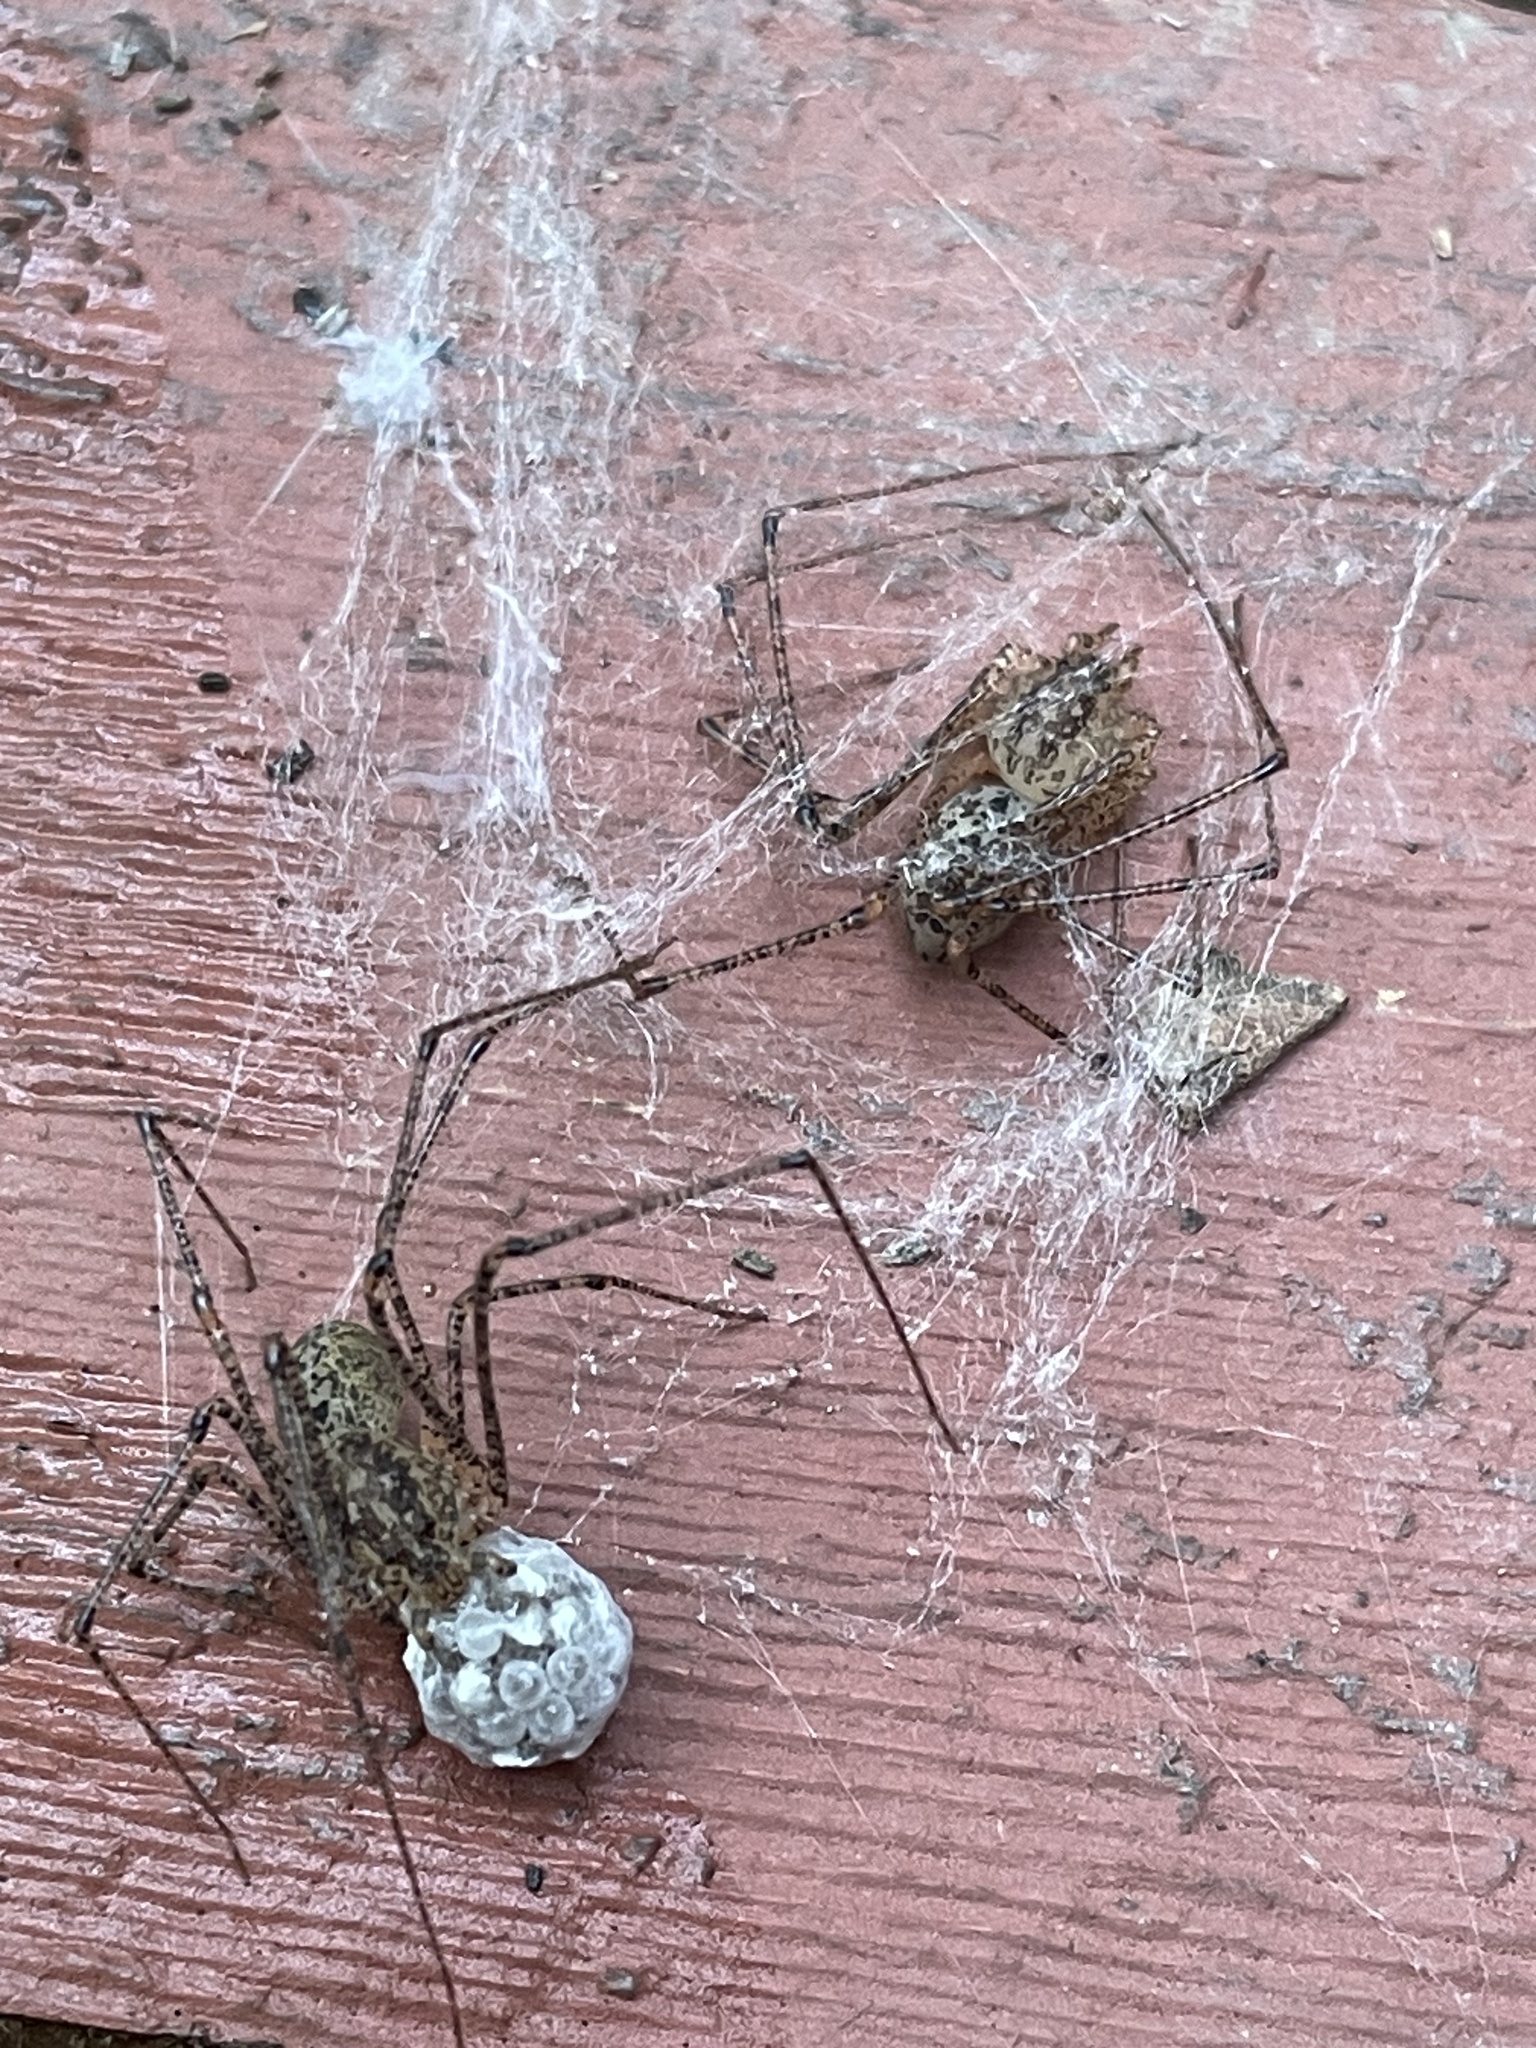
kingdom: Animalia
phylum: Arthropoda
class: Arachnida
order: Araneae
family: Scytodidae
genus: Scytodes
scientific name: Scytodes atlacoya
